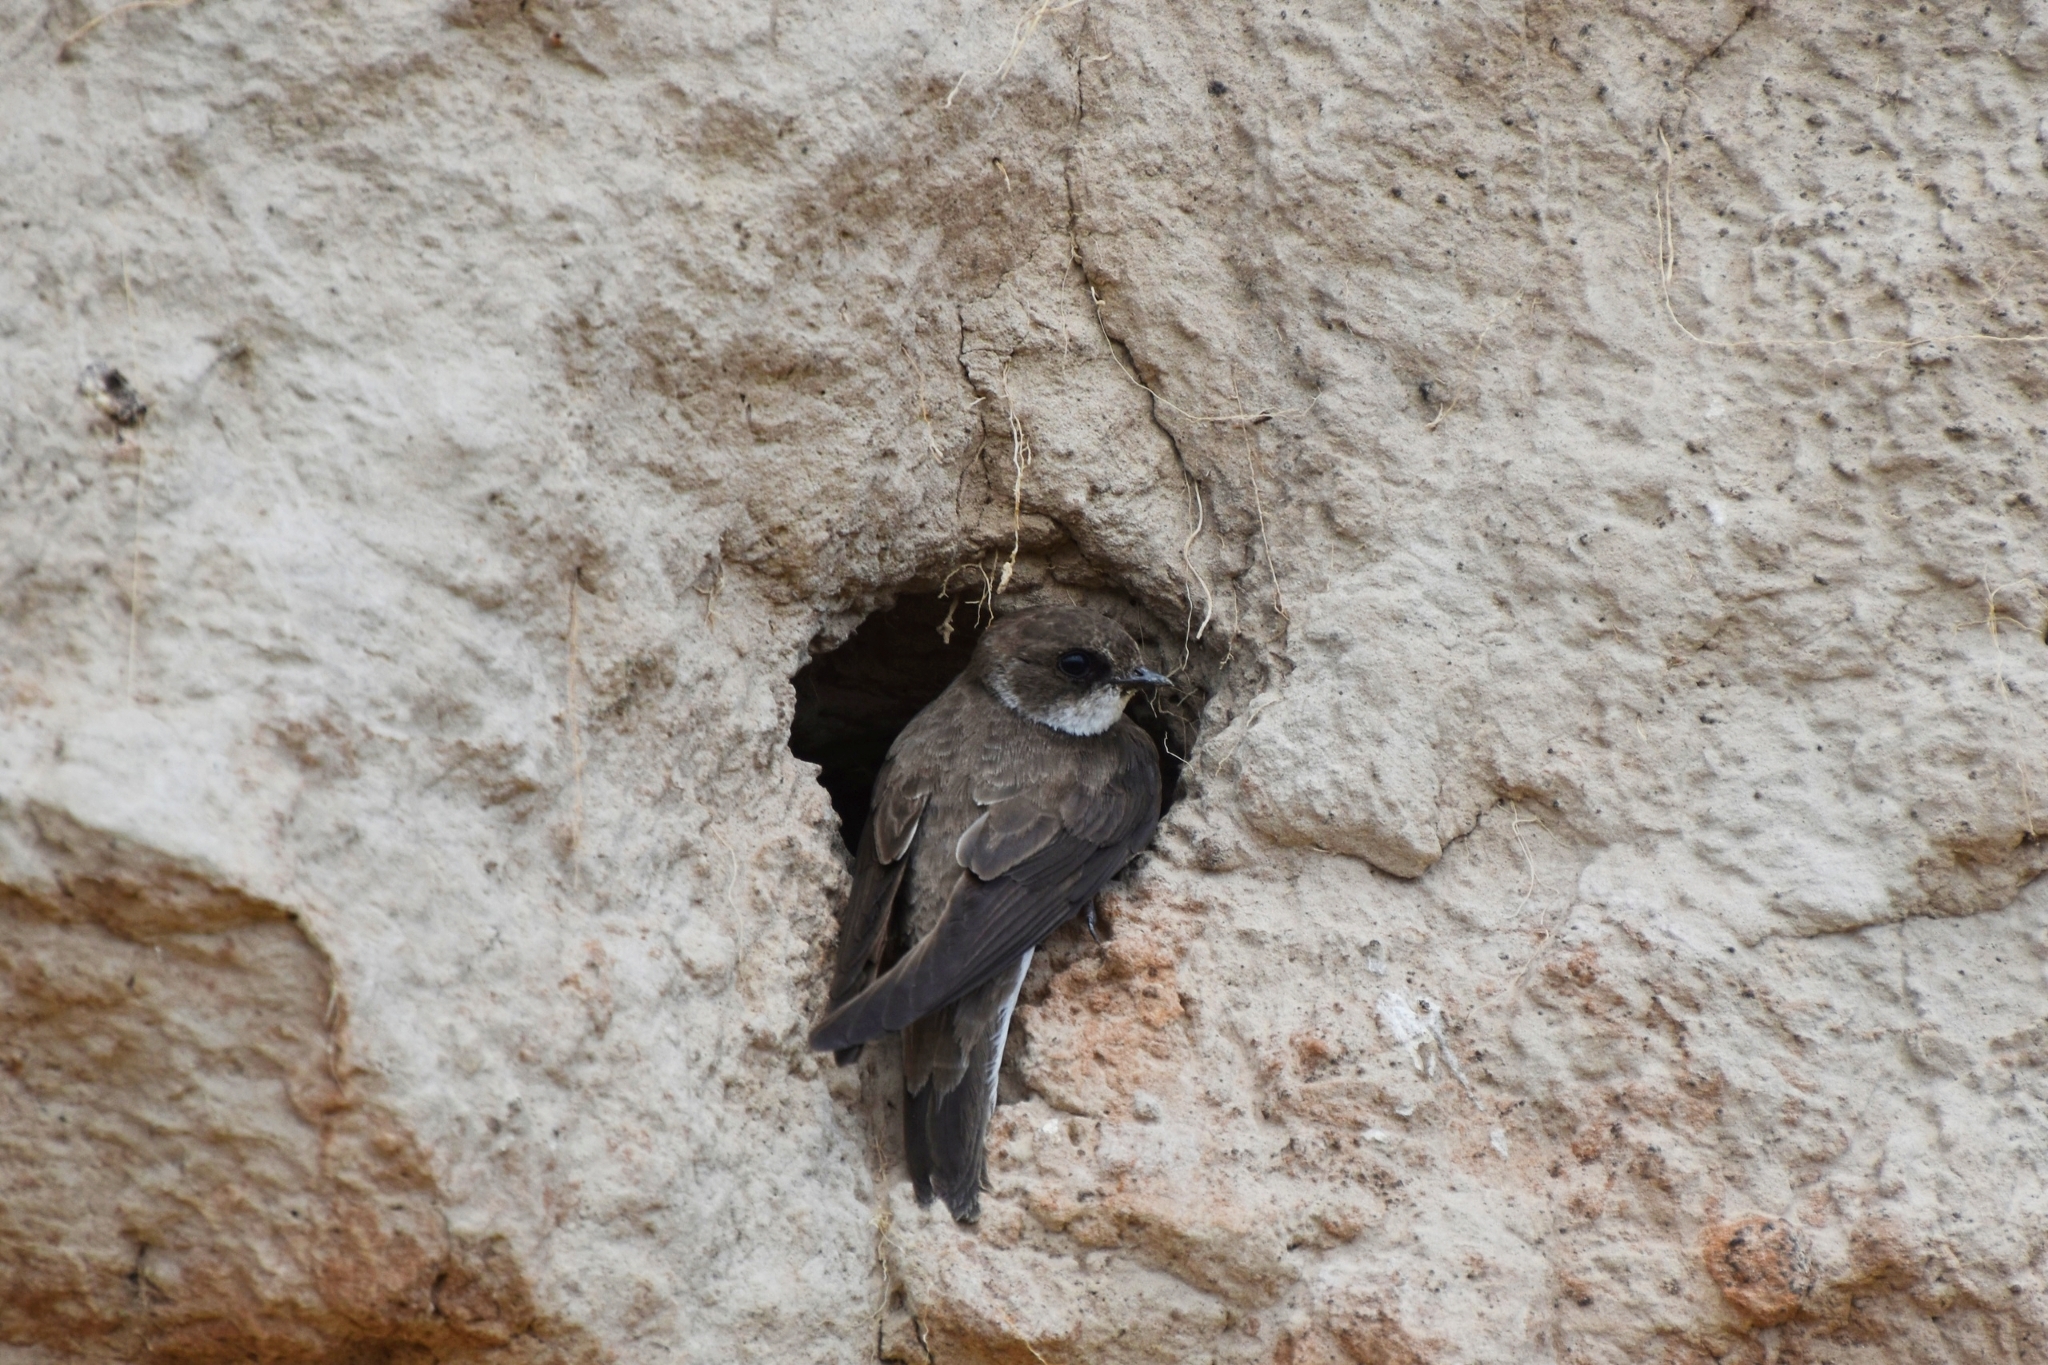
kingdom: Animalia
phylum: Chordata
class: Aves
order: Passeriformes
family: Hirundinidae
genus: Riparia
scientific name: Riparia riparia
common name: Sand martin
